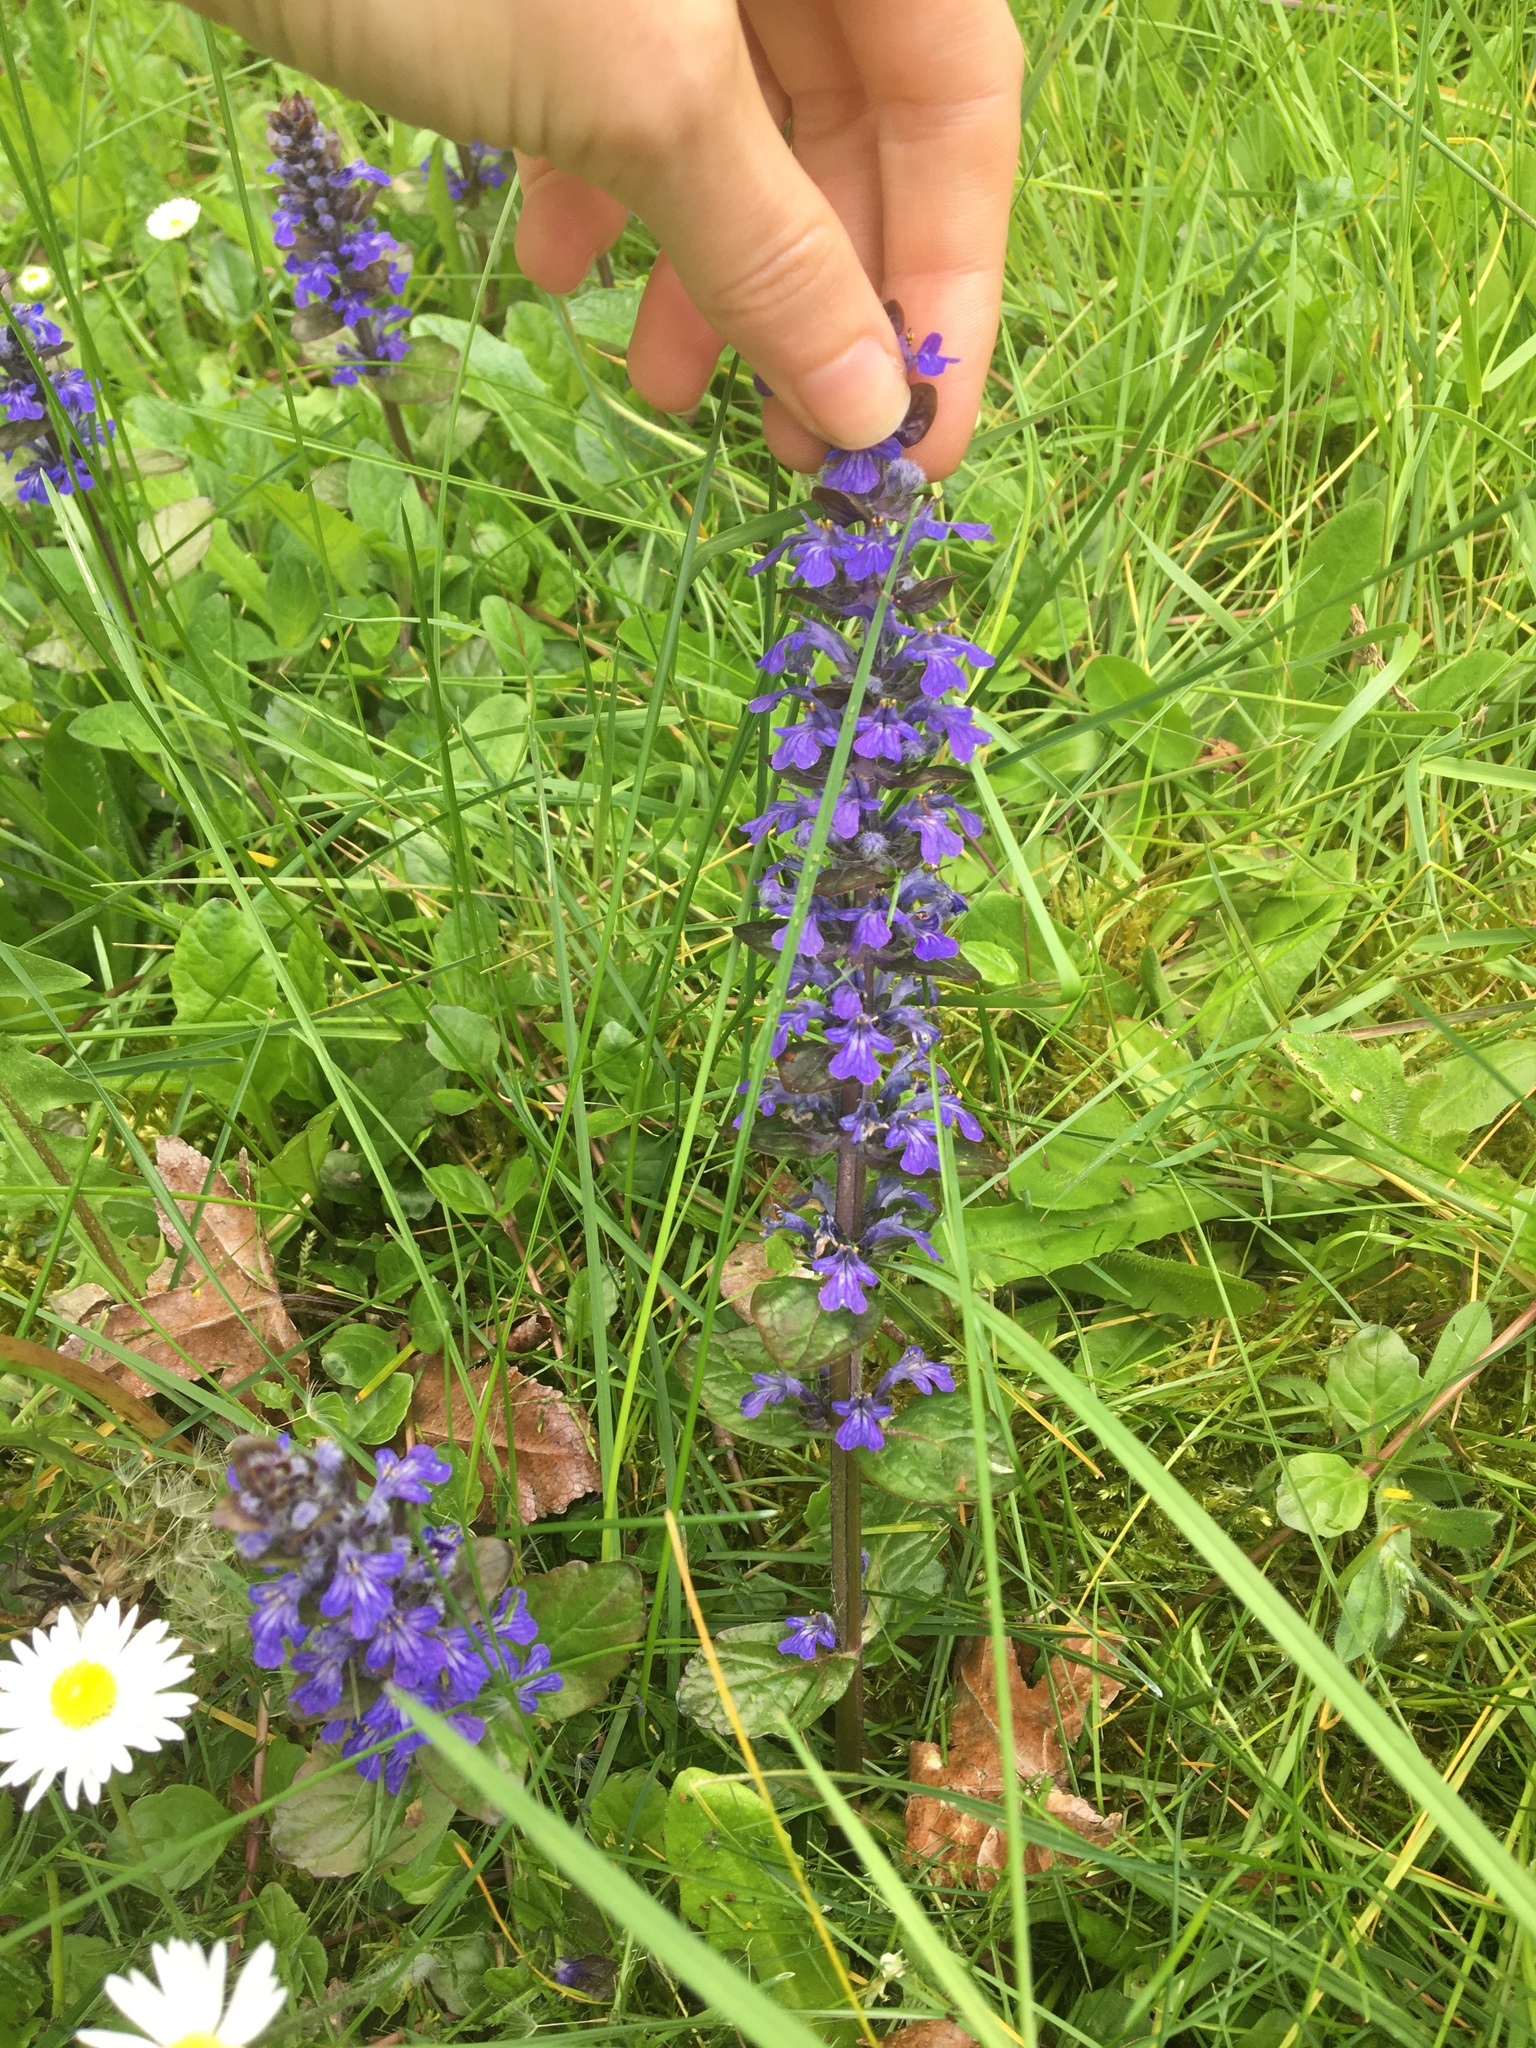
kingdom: Plantae
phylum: Tracheophyta
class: Magnoliopsida
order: Lamiales
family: Lamiaceae
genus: Ajuga
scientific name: Ajuga reptans
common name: Bugle
